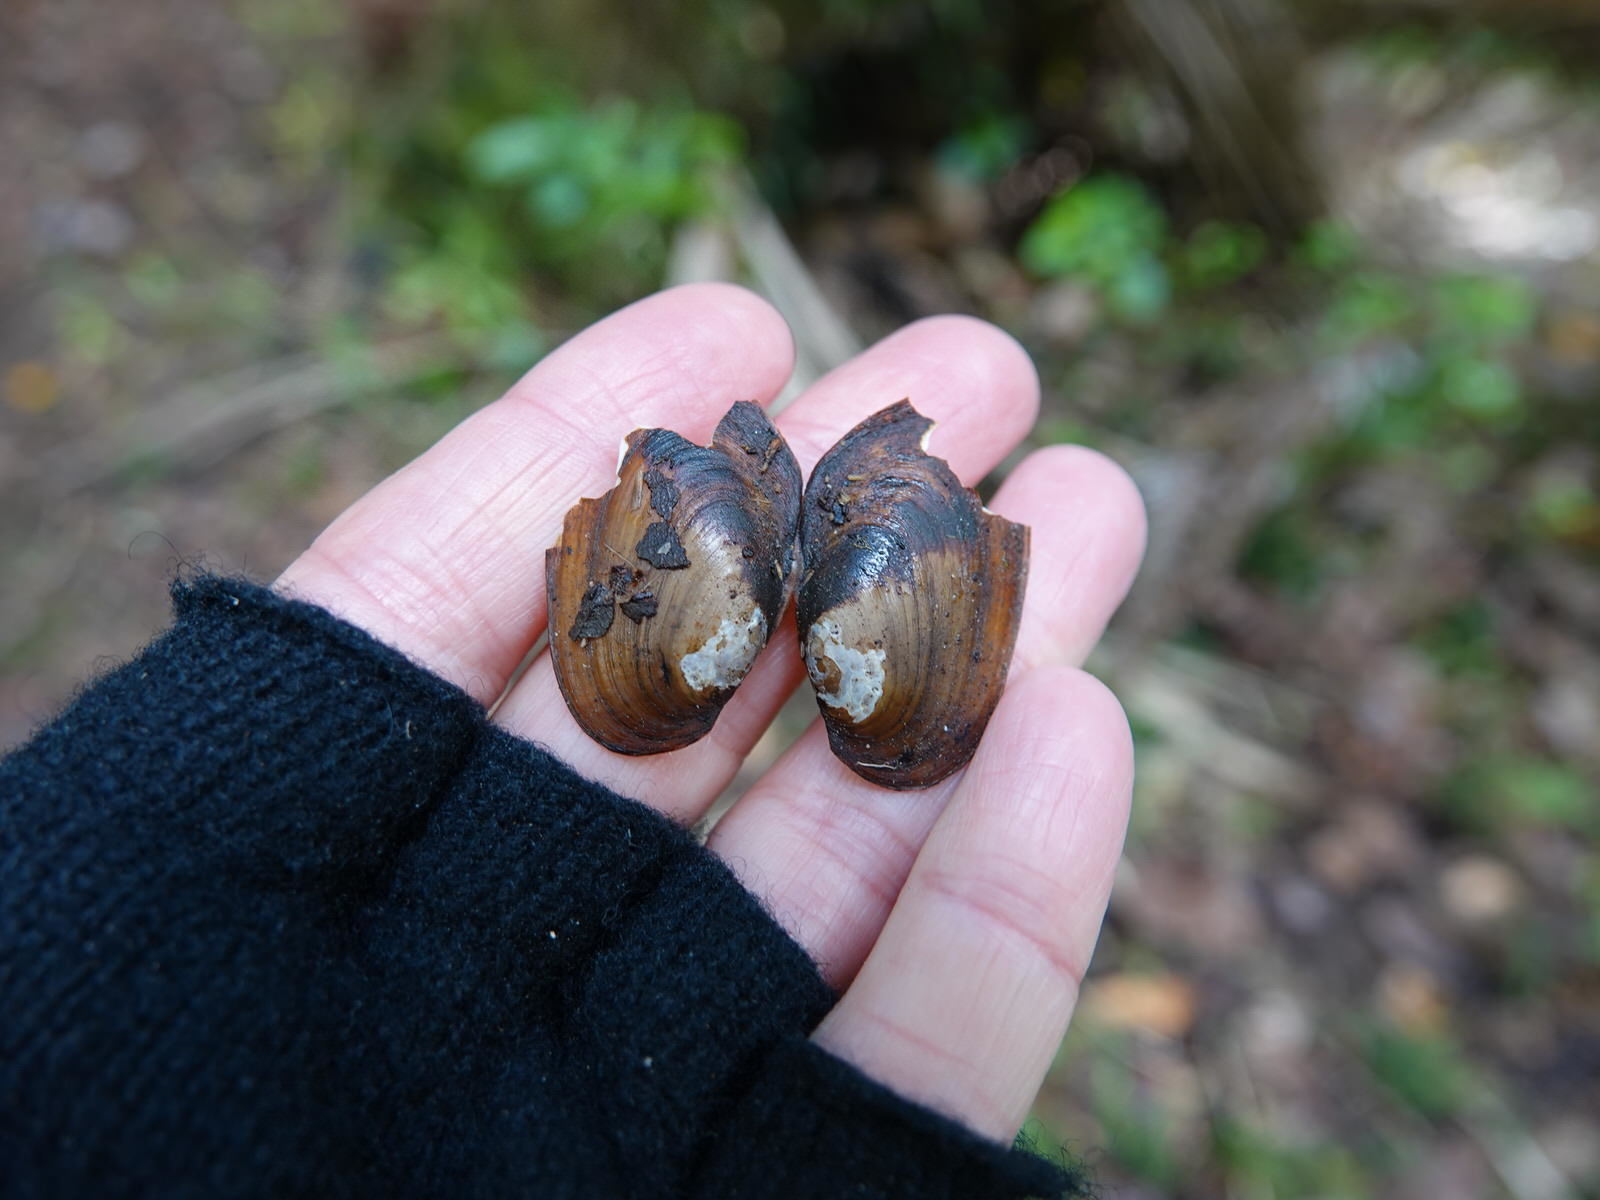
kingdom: Animalia
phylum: Mollusca
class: Bivalvia
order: Unionida
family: Hyriidae
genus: Echyridella
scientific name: Echyridella menziesii
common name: New zealand freshwater mussel
